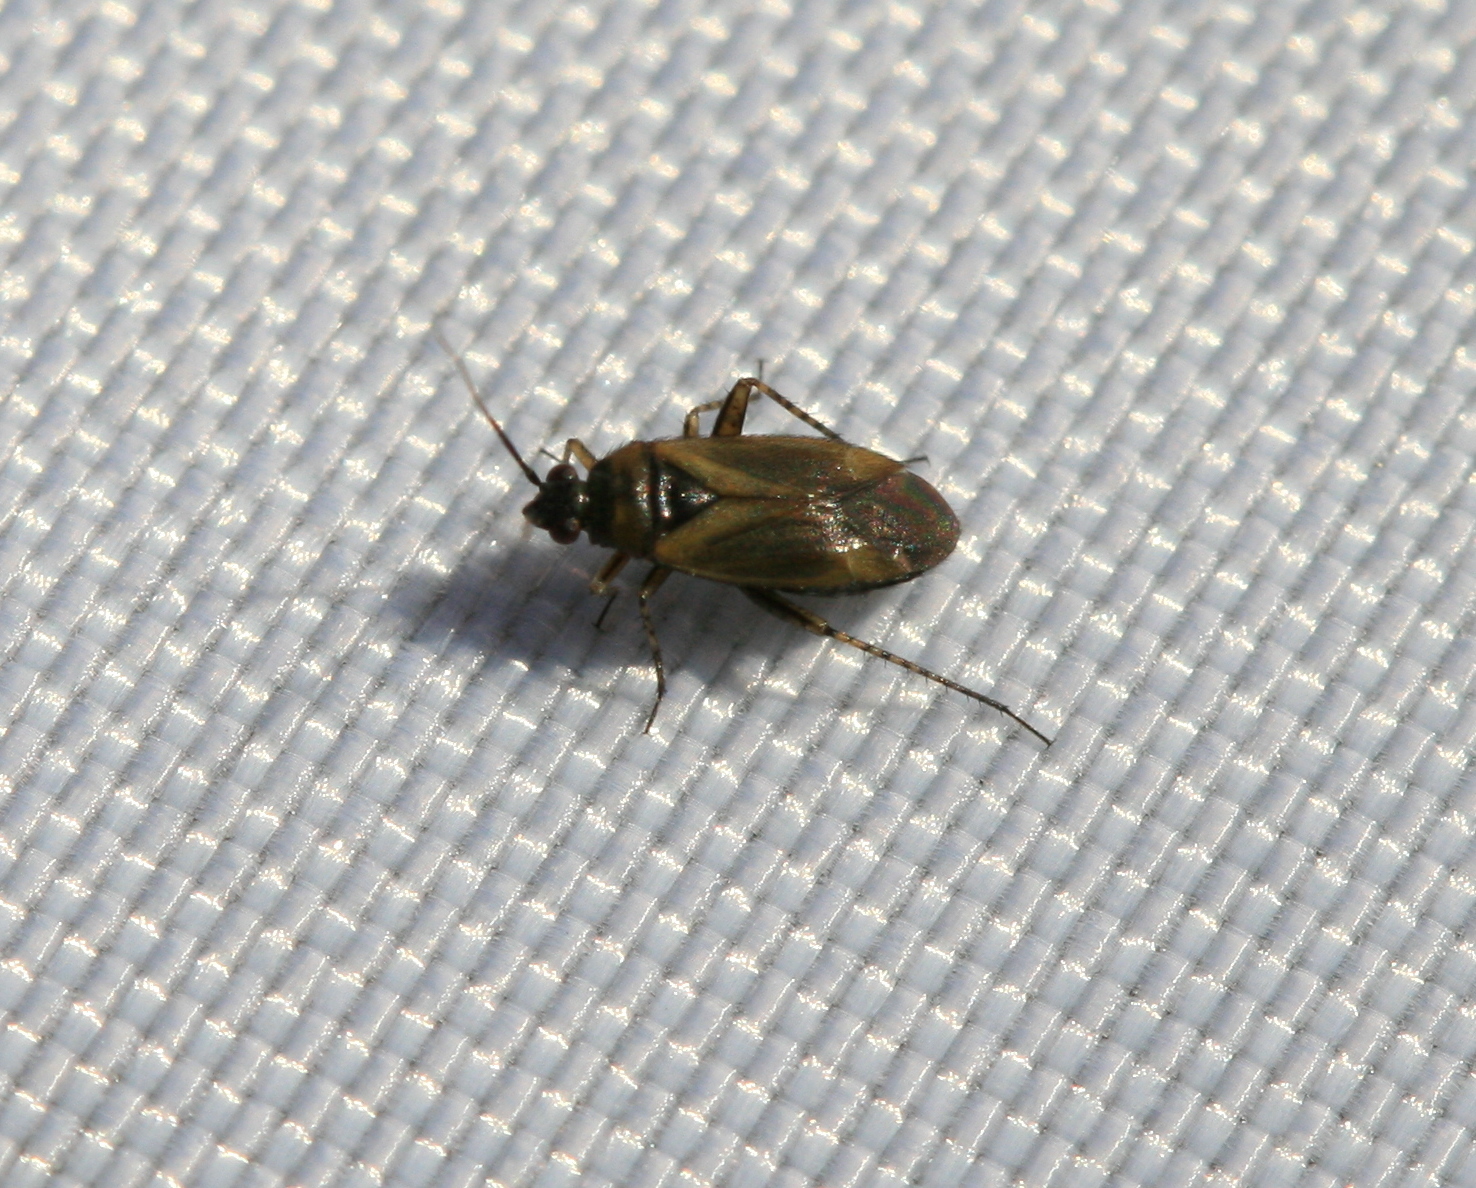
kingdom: Animalia
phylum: Arthropoda
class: Insecta
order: Hemiptera
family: Miridae
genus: Plagiognathus
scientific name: Plagiognathus arbustorum
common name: Plant bug
